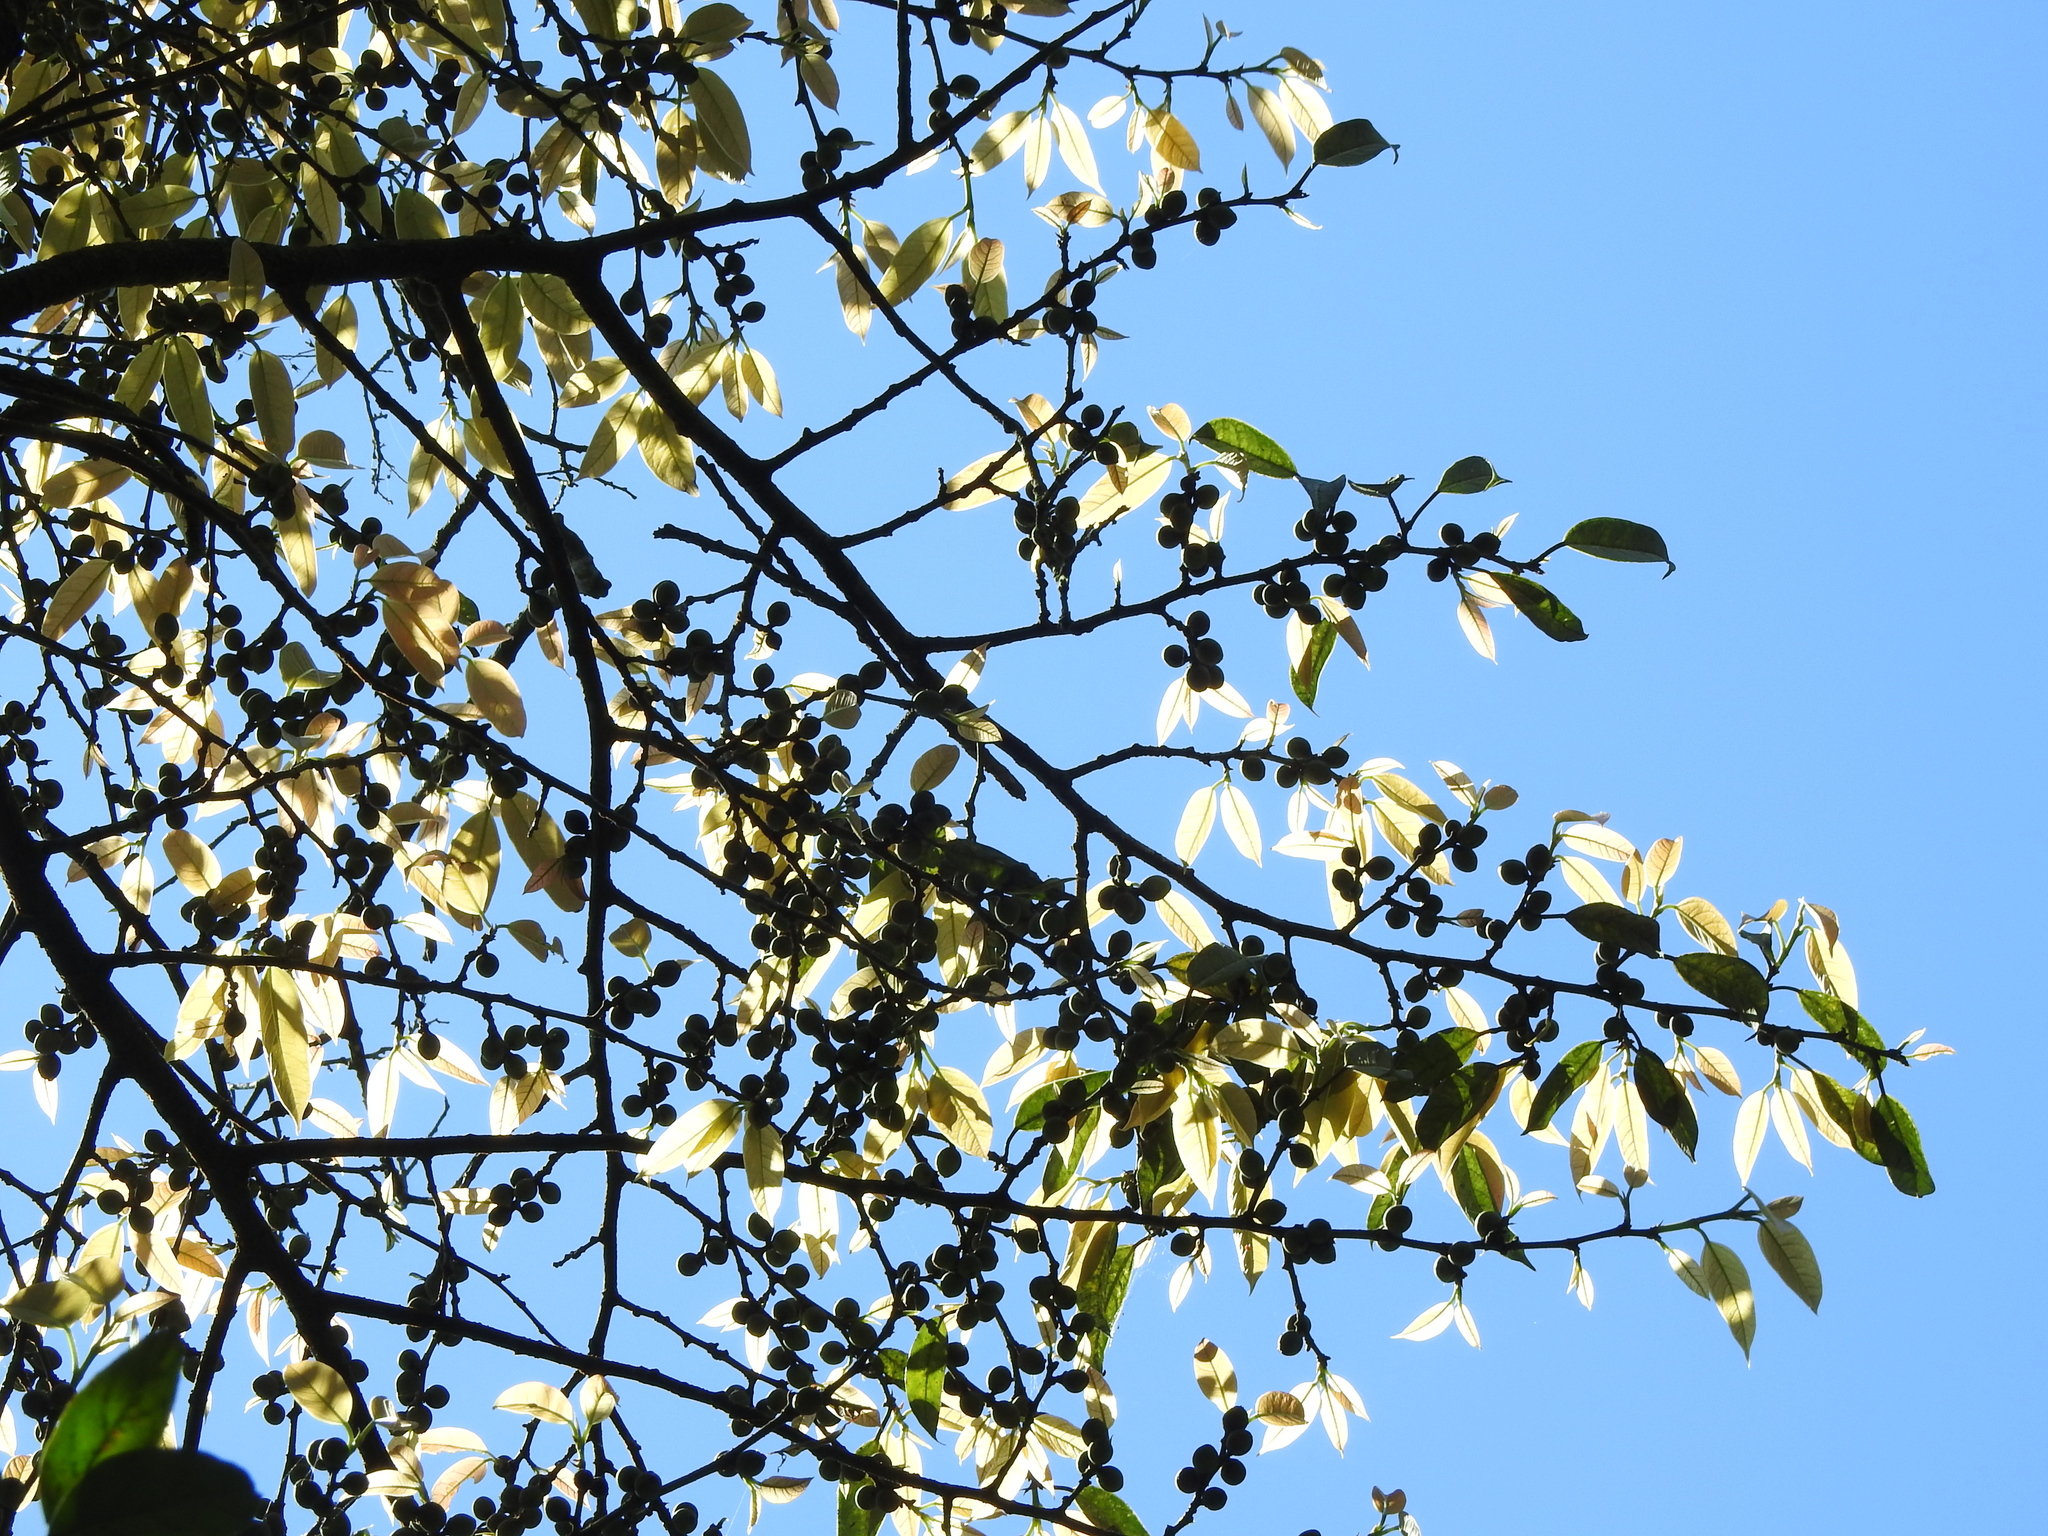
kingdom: Plantae
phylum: Tracheophyta
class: Magnoliopsida
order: Rosales
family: Moraceae
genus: Ficus
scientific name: Ficus sarmentosa
